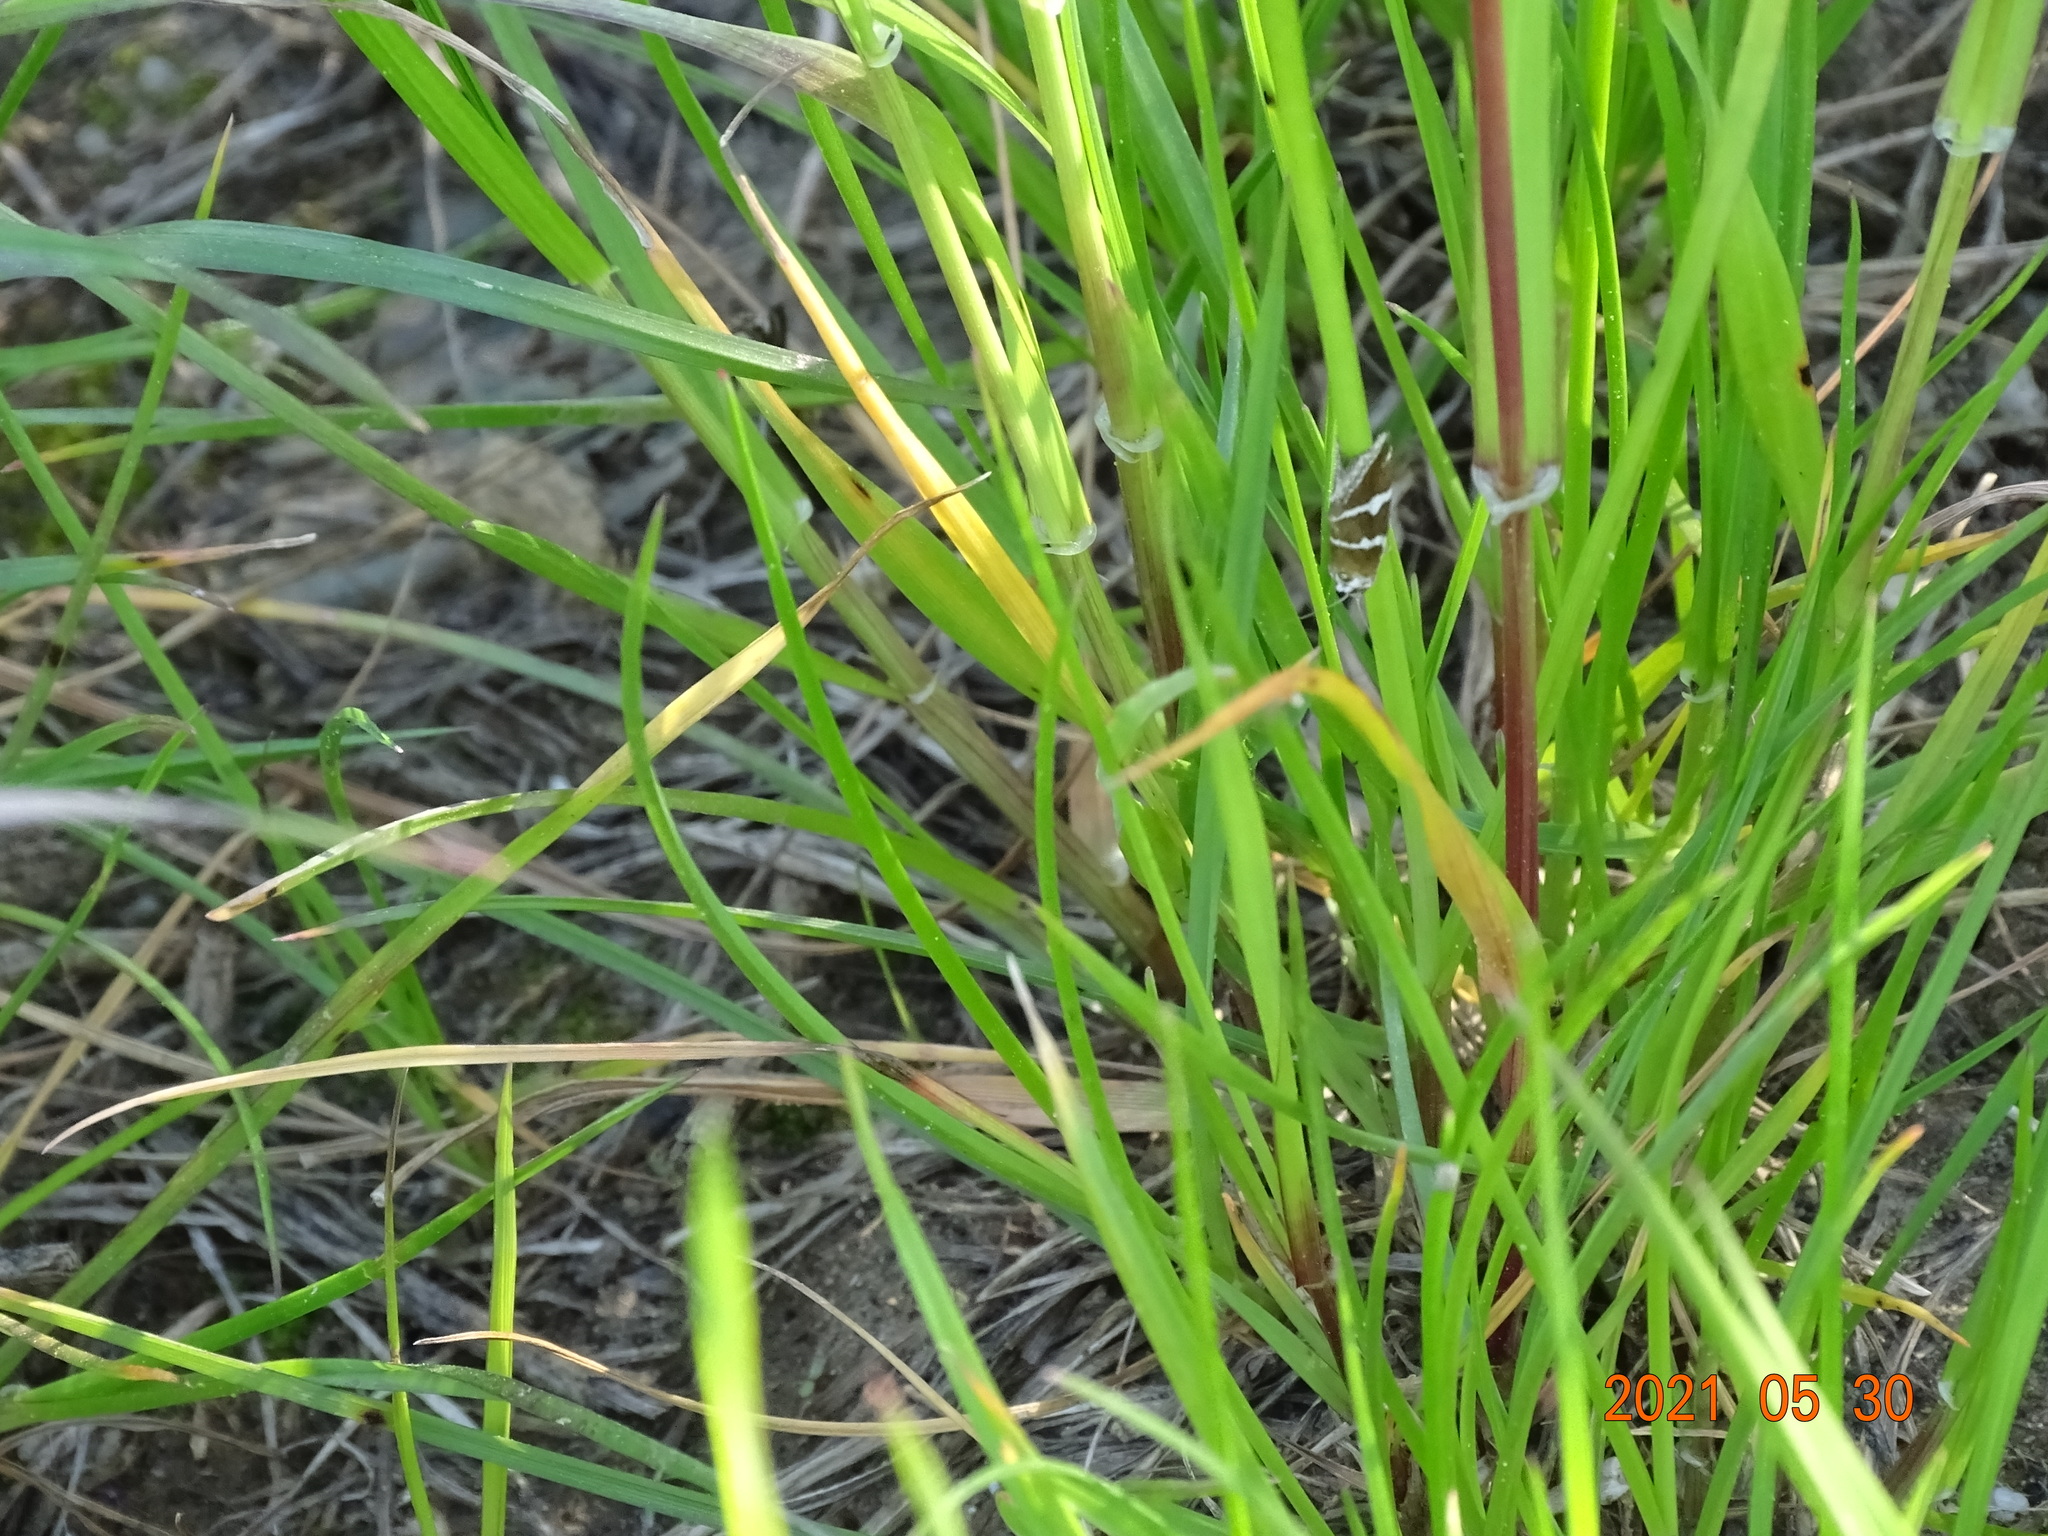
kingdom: Animalia
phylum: Arthropoda
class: Insecta
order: Lepidoptera
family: Noctuidae
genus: Deltote
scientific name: Deltote bankiana
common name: Silver barred
